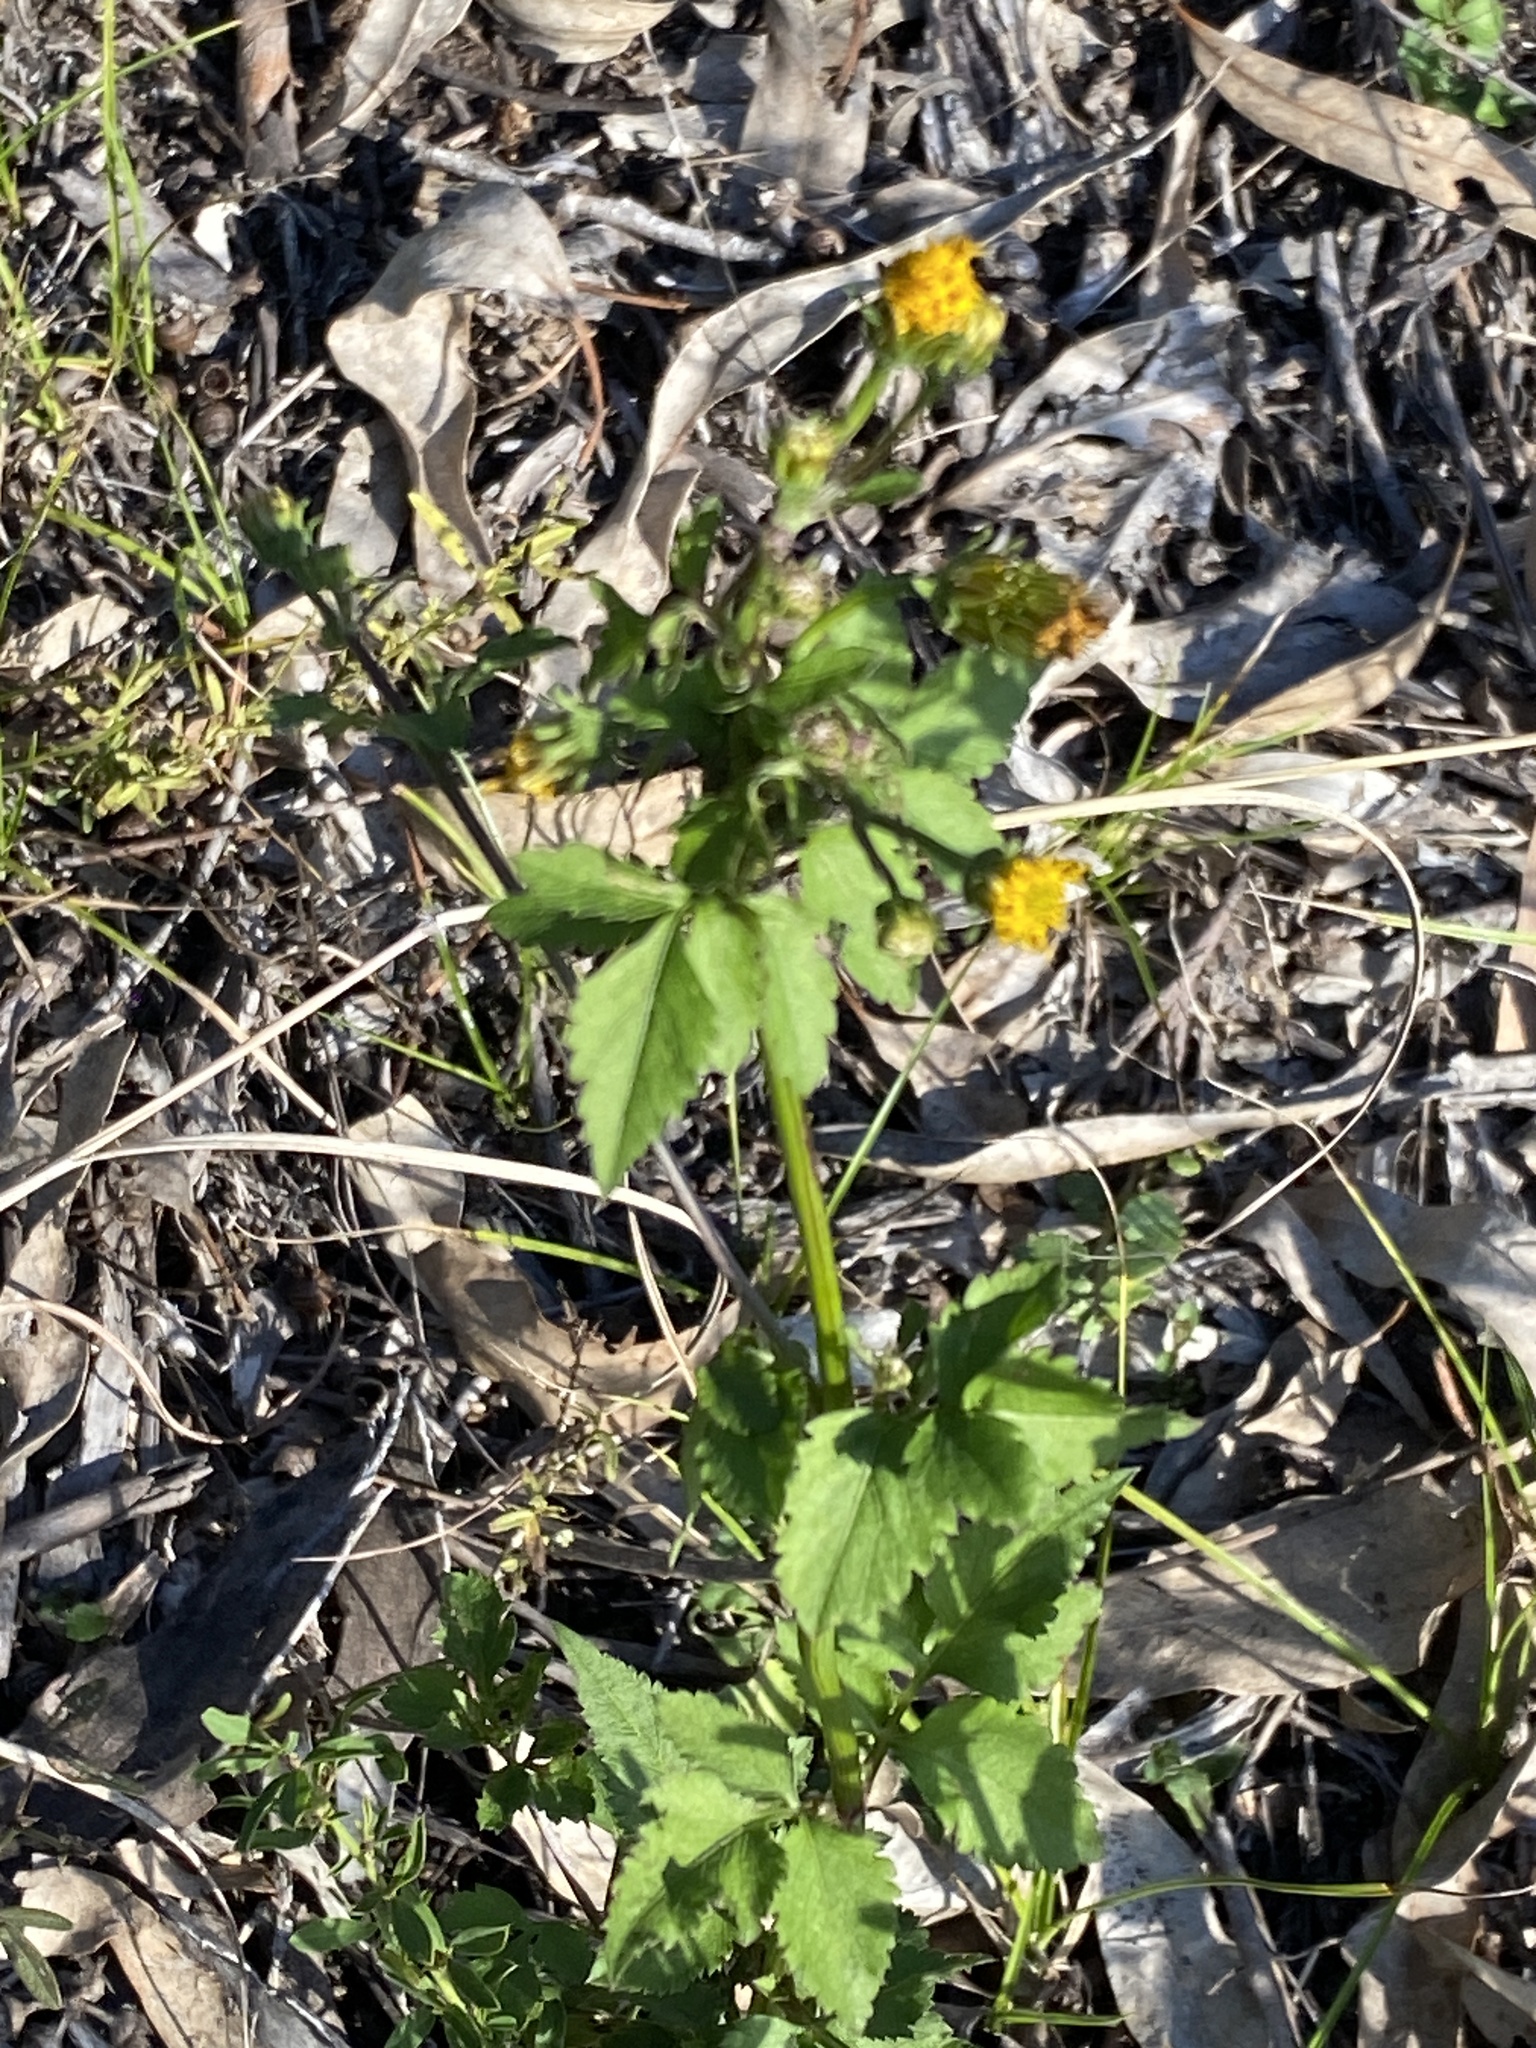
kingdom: Plantae
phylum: Tracheophyta
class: Magnoliopsida
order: Asterales
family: Asteraceae
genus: Bidens
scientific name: Bidens pilosa
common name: Black-jack
